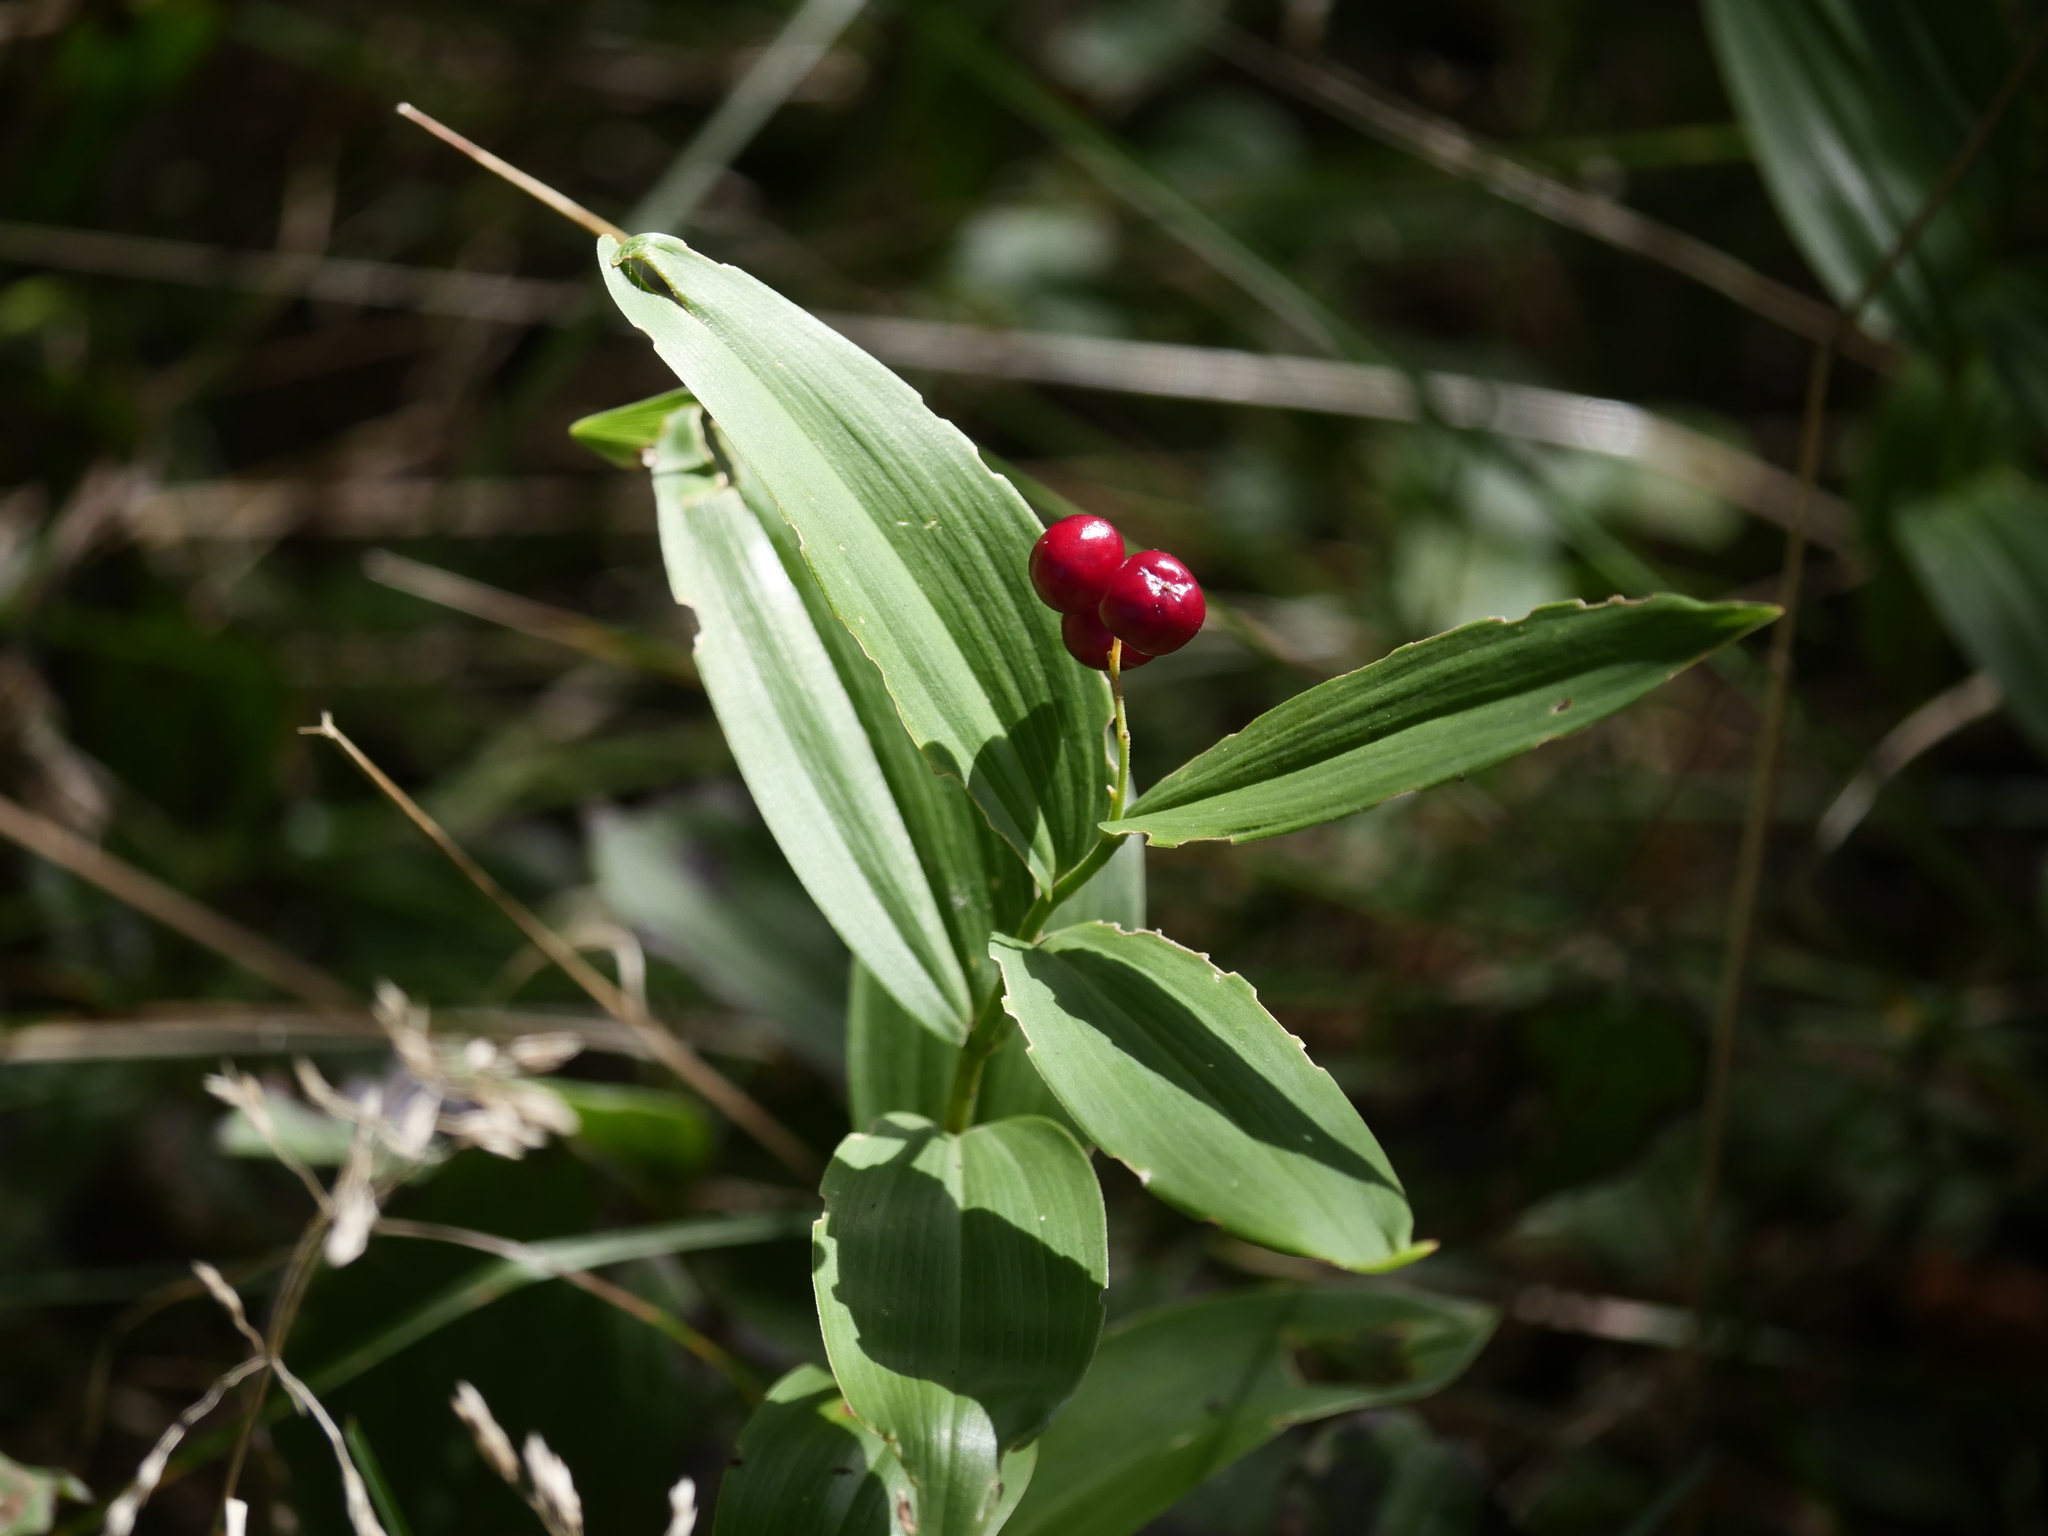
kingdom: Plantae
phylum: Tracheophyta
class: Liliopsida
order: Asparagales
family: Asparagaceae
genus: Maianthemum
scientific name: Maianthemum stellatum
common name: Little false solomon's seal
